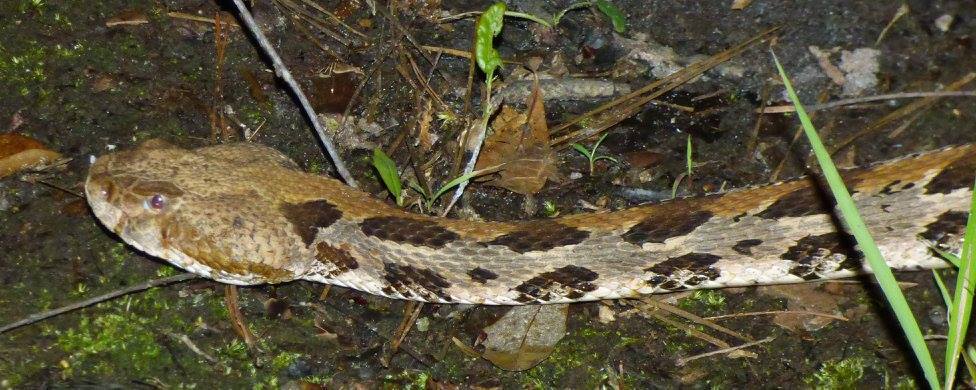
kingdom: Animalia
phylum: Chordata
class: Squamata
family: Viperidae
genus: Crotalus
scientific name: Crotalus horridus
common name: Timber rattlesnake
